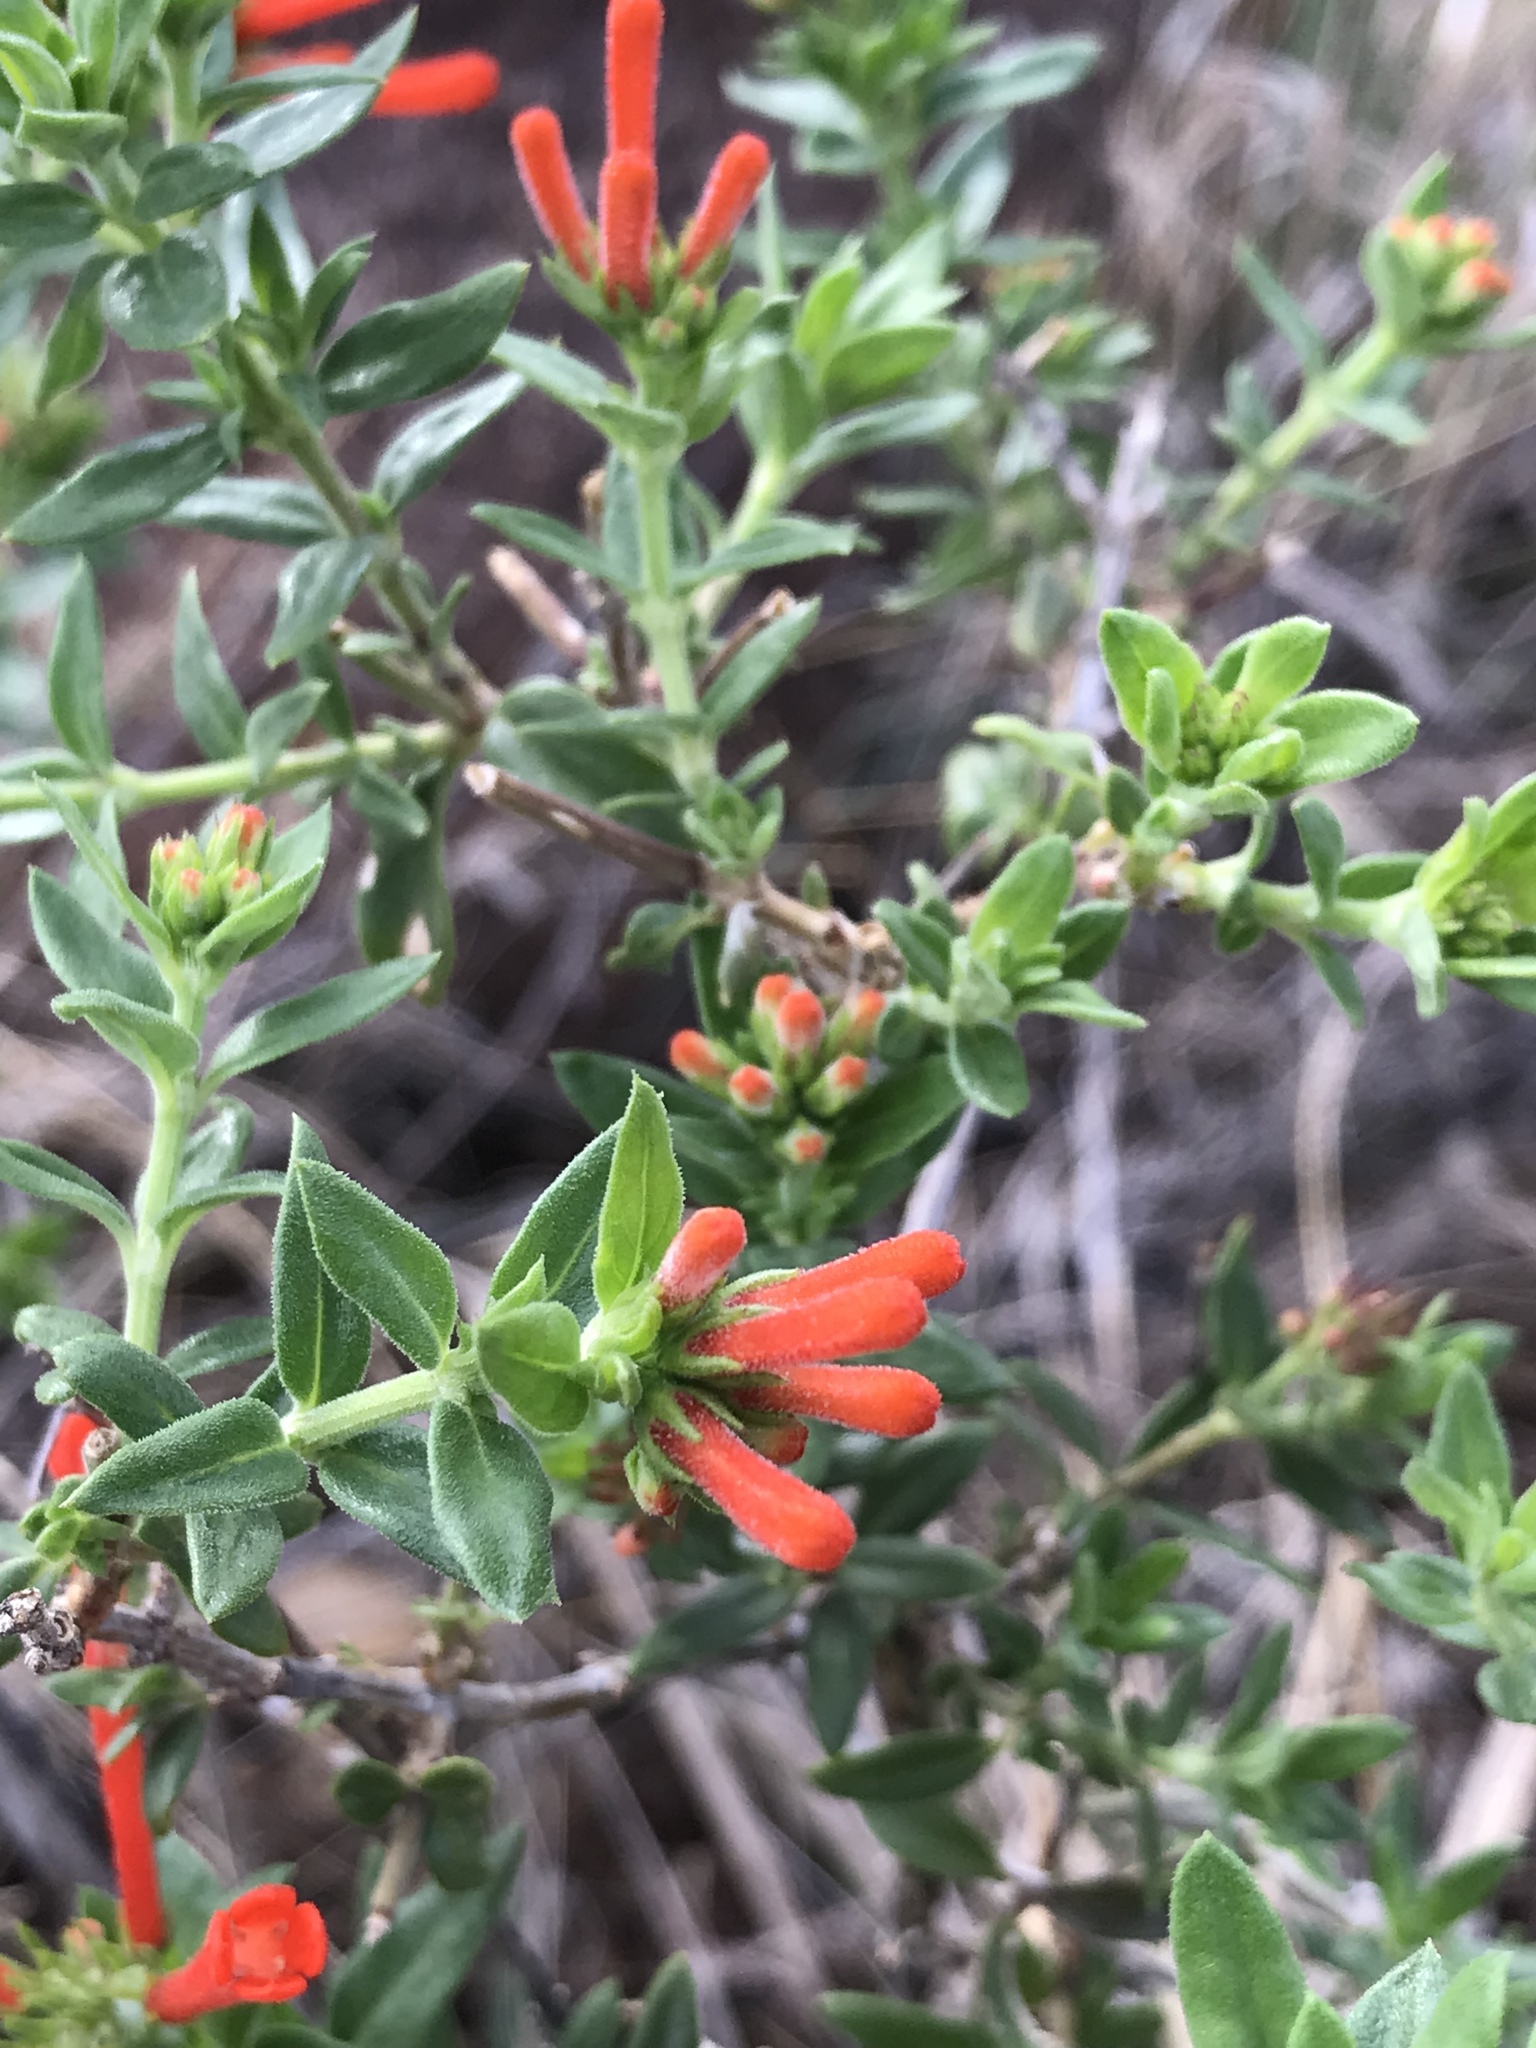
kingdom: Plantae
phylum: Tracheophyta
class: Magnoliopsida
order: Gentianales
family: Rubiaceae
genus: Bouvardia
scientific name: Bouvardia ternifolia
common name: Scarlet bouvardia
